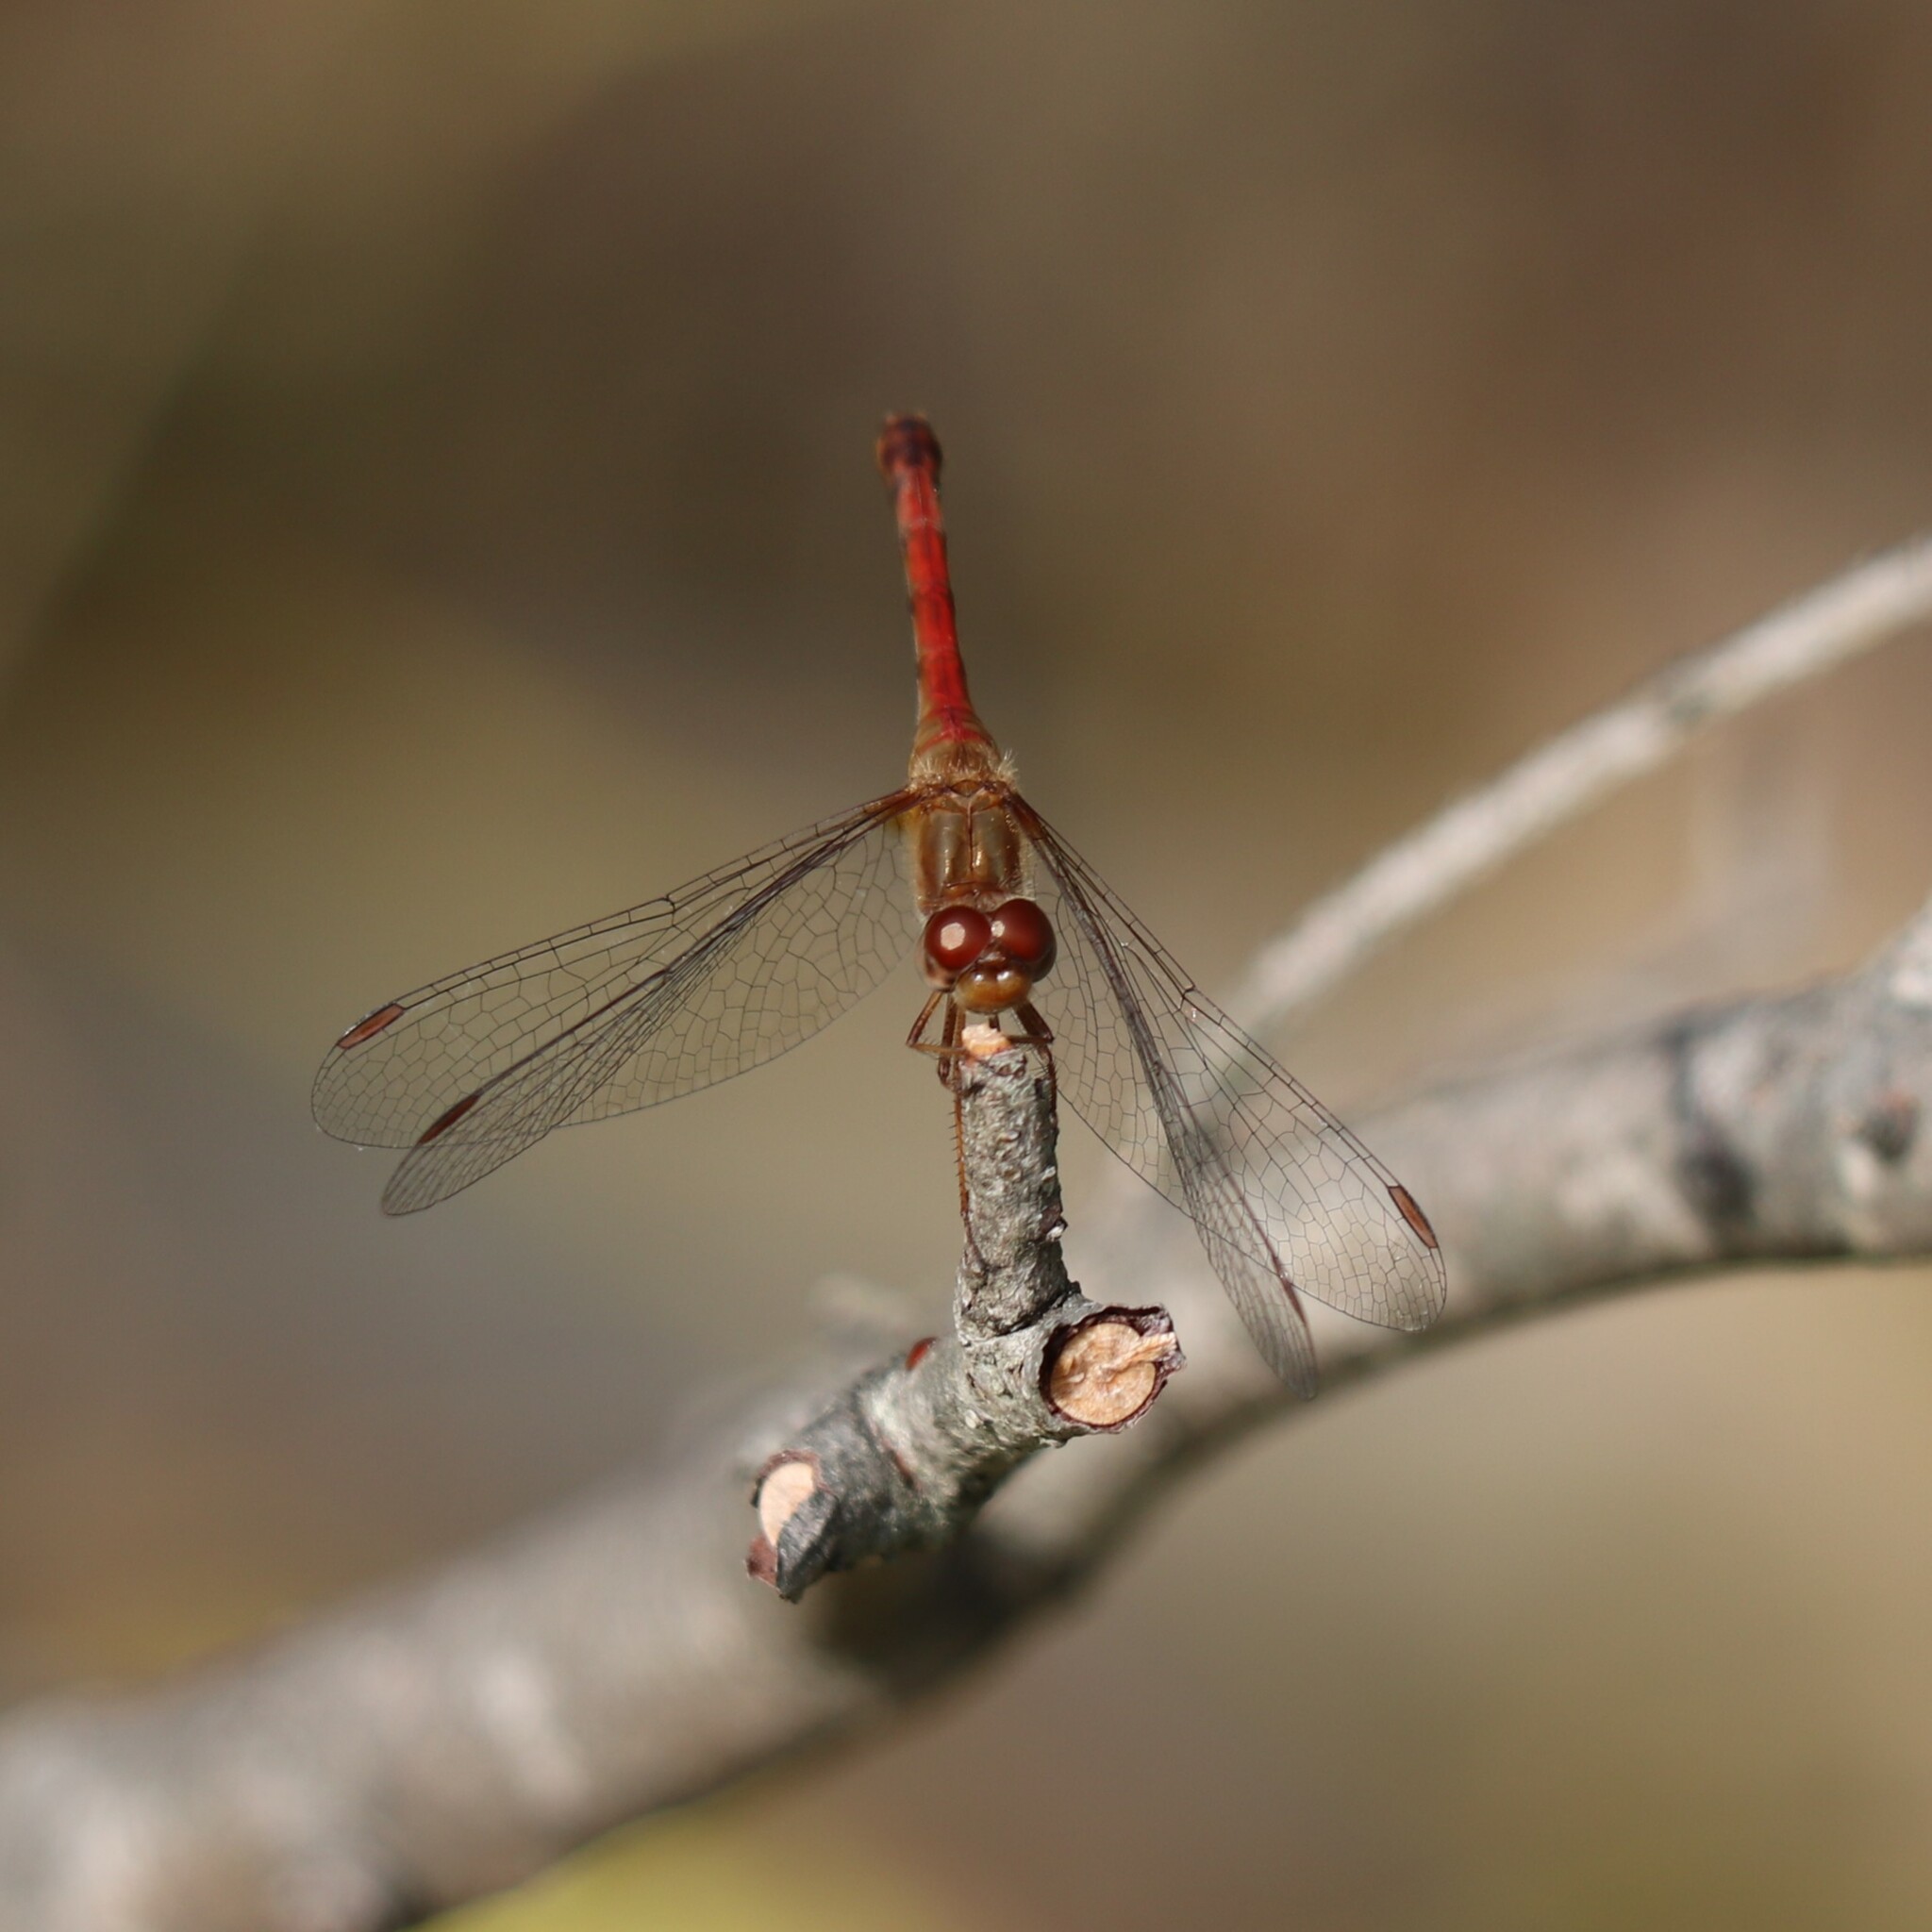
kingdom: Animalia
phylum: Arthropoda
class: Insecta
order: Odonata
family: Libellulidae
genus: Sympetrum
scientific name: Sympetrum vicinum
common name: Autumn meadowhawk
